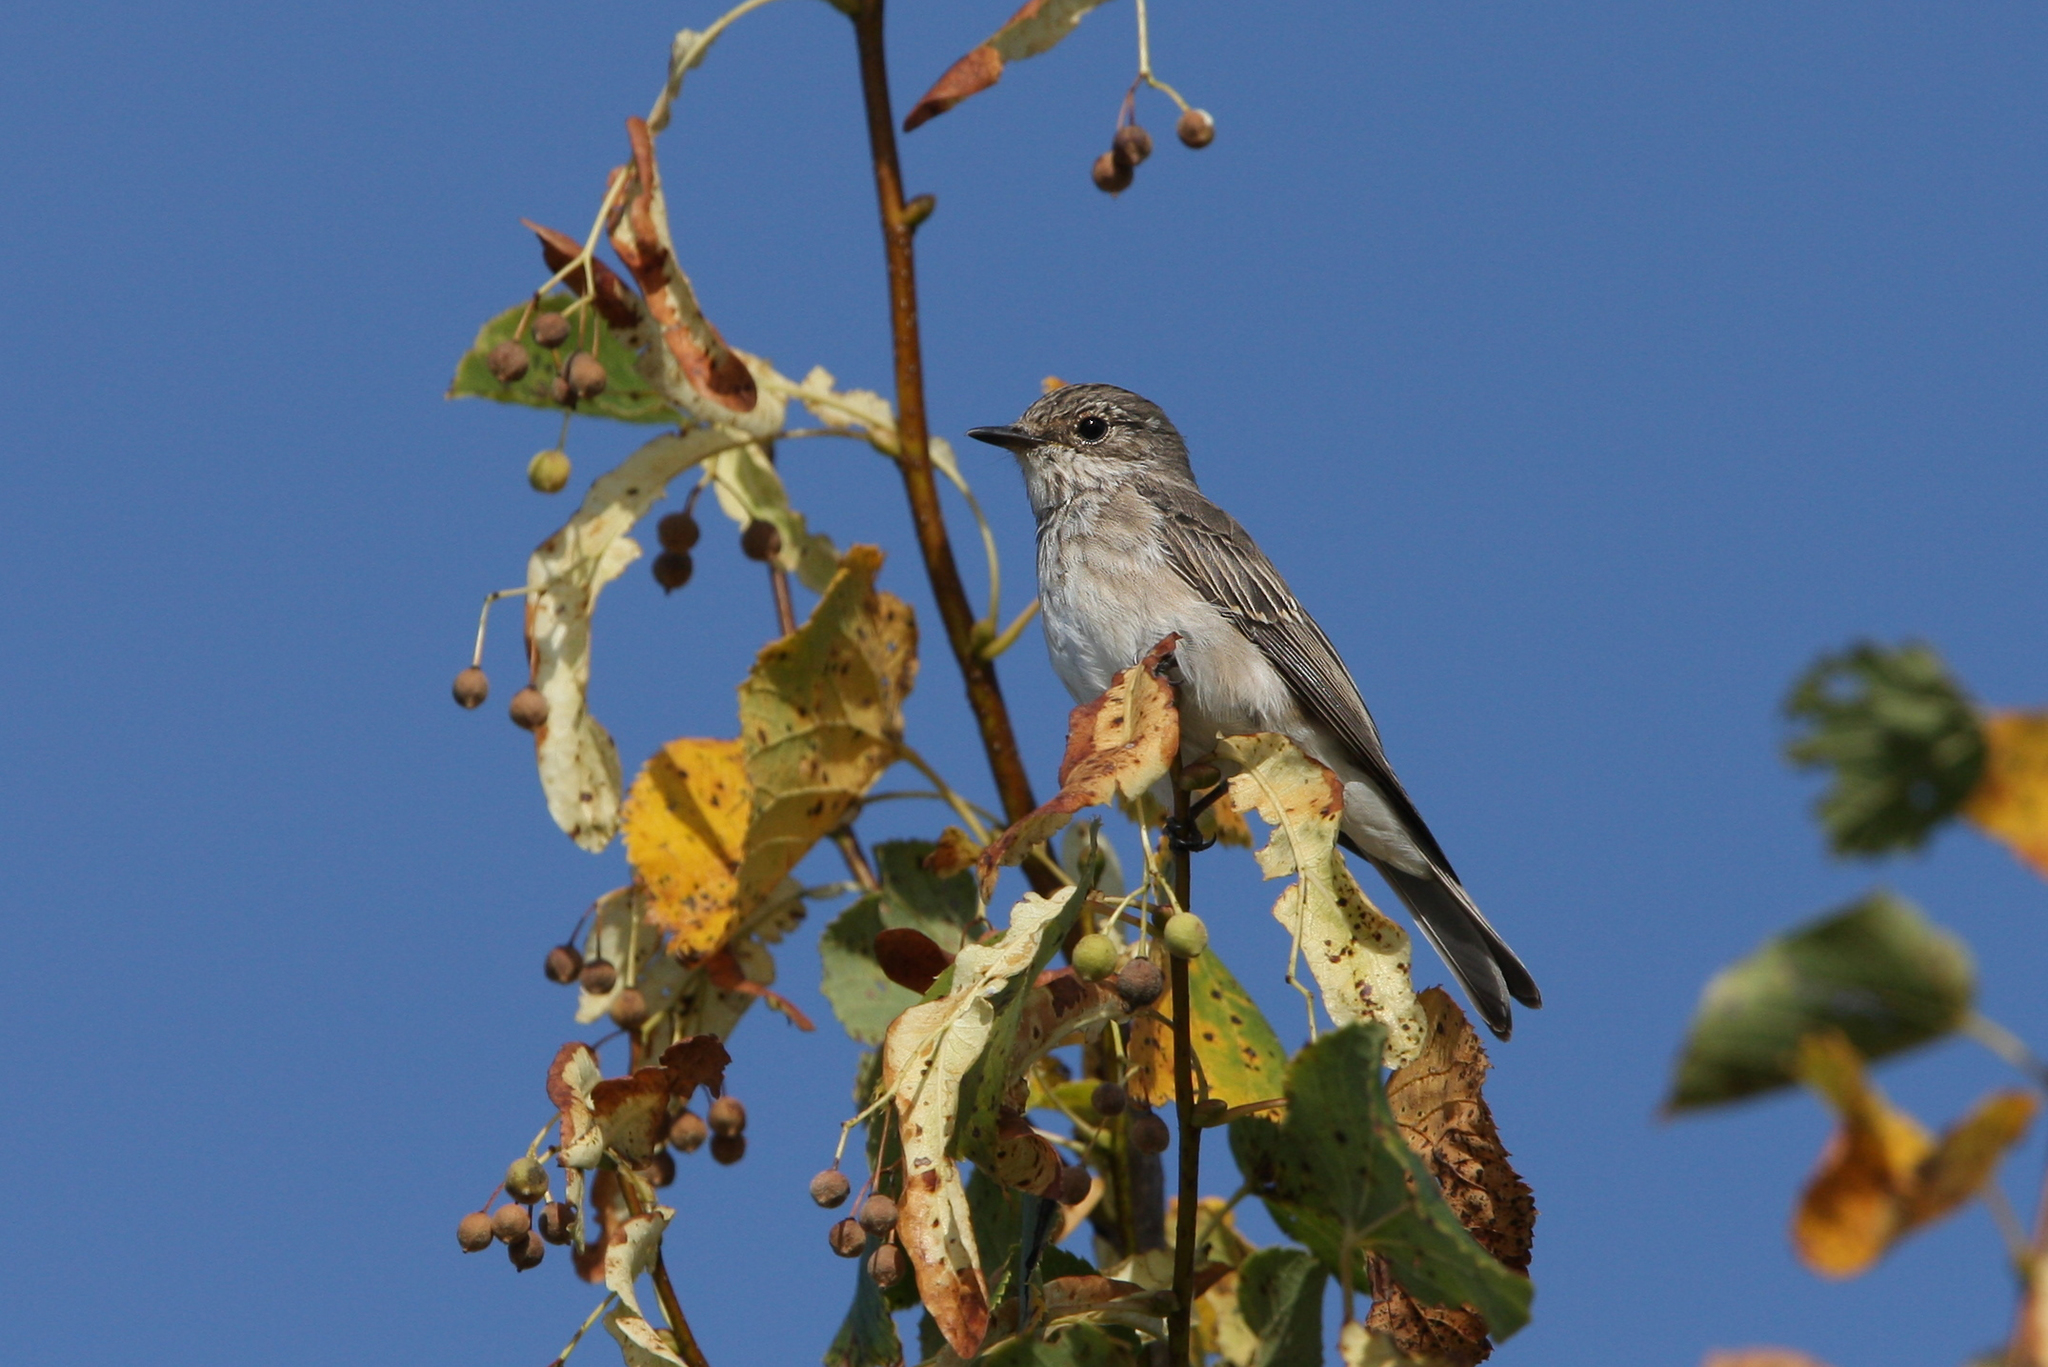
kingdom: Animalia
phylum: Chordata
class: Aves
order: Passeriformes
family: Muscicapidae
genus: Muscicapa
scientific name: Muscicapa striata
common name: Spotted flycatcher
